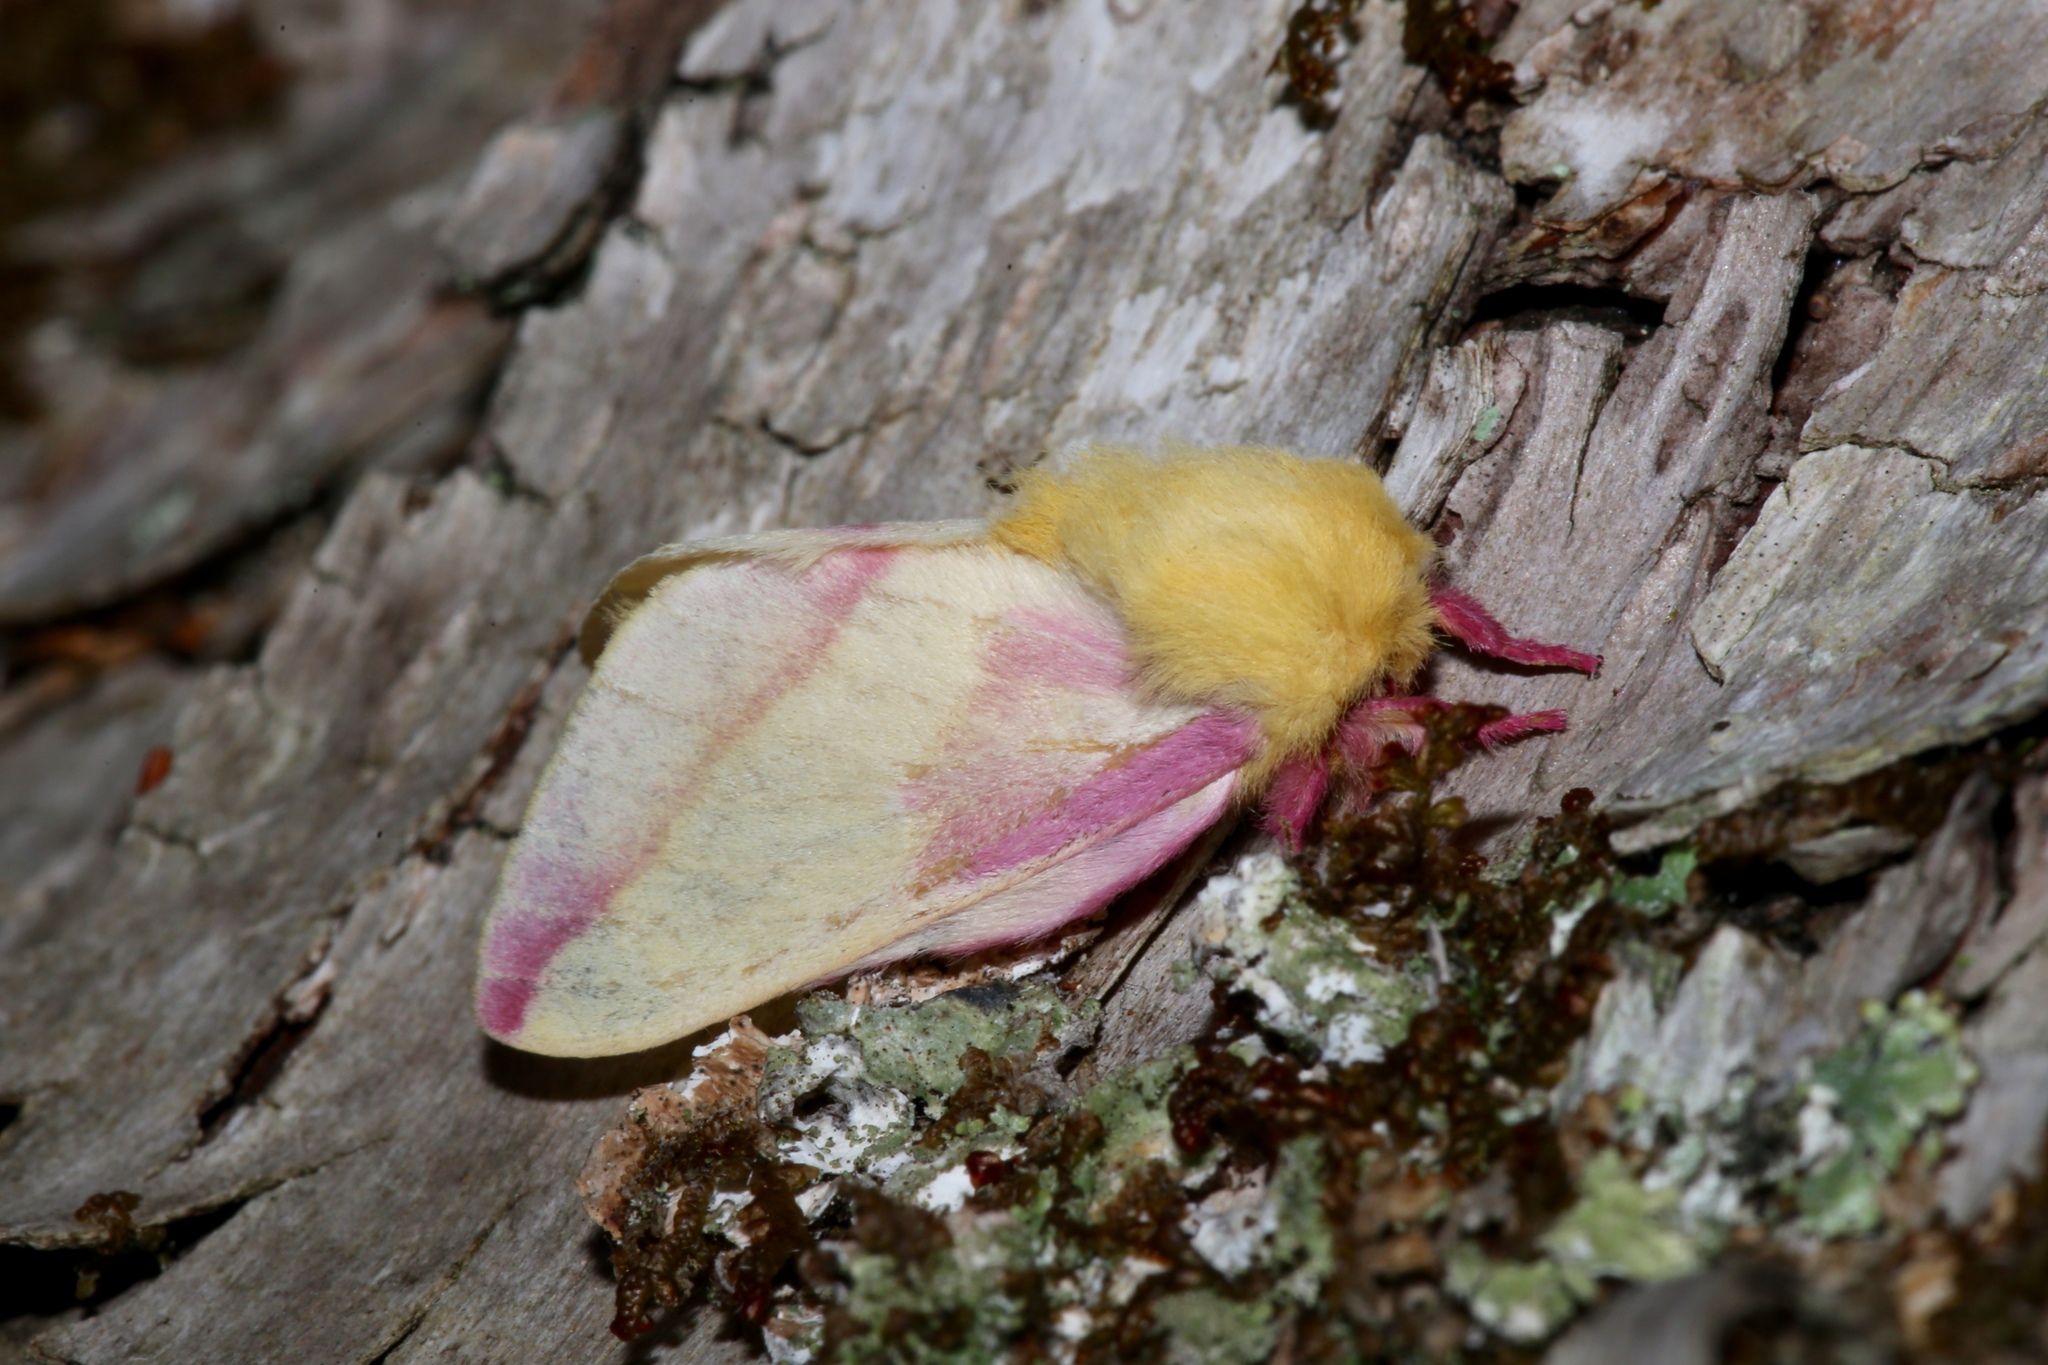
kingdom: Animalia
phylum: Arthropoda
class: Insecta
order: Lepidoptera
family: Saturniidae
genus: Dryocampa
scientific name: Dryocampa rubicunda
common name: Rosy maple moth
